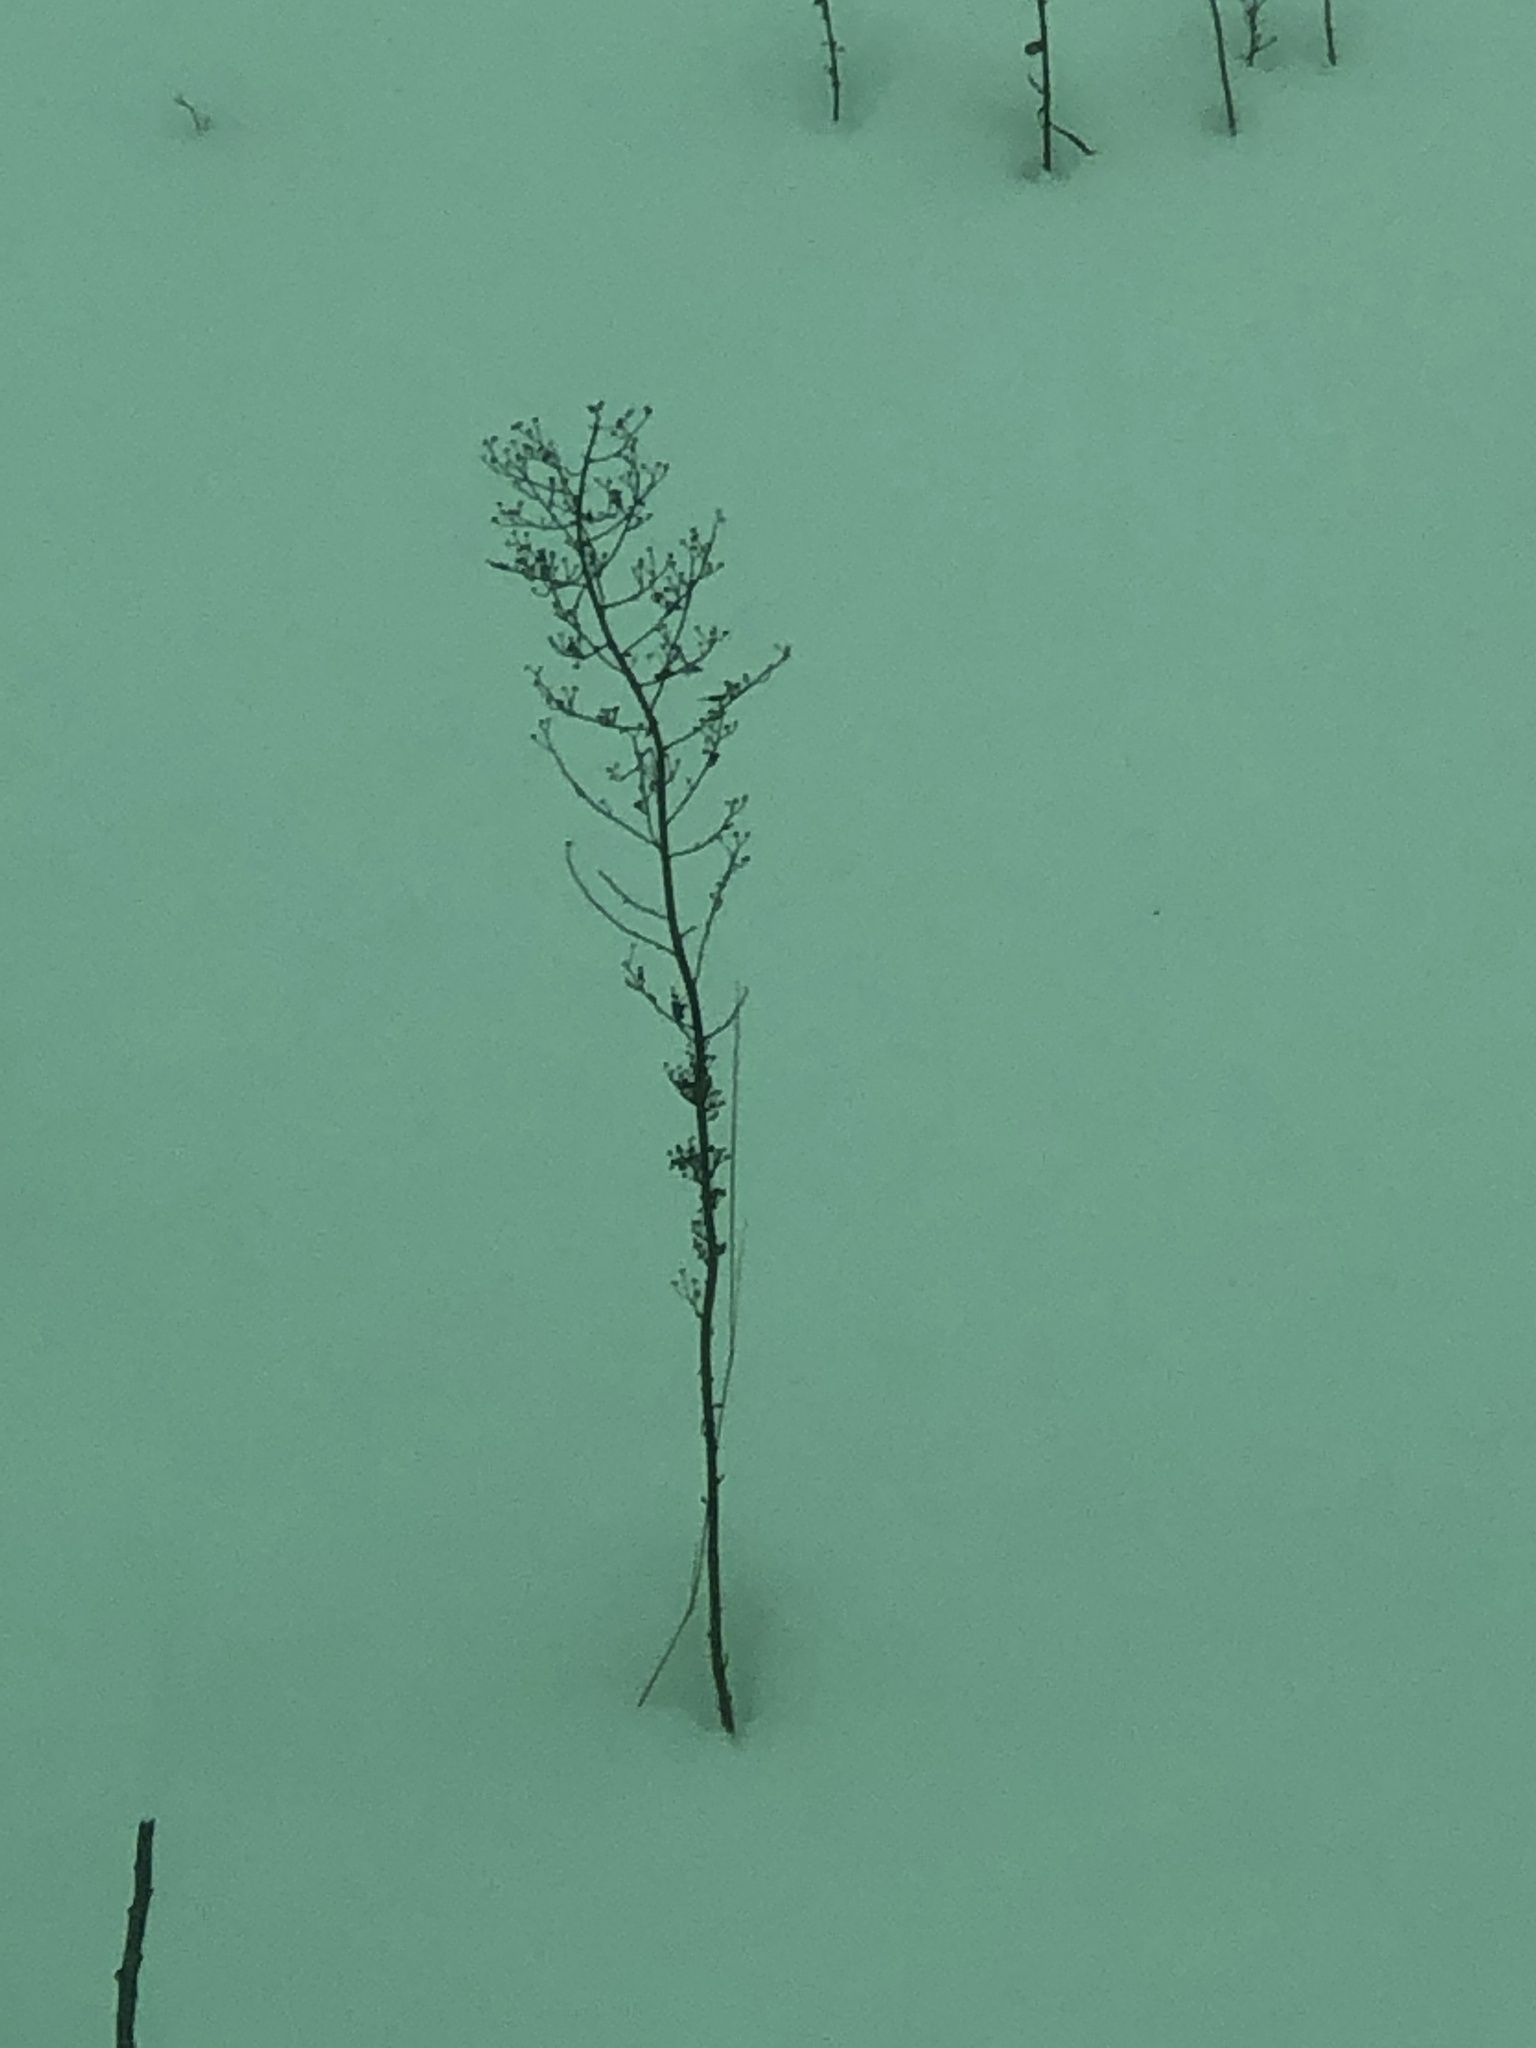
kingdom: Plantae
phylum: Tracheophyta
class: Magnoliopsida
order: Asterales
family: Asteraceae
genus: Erigeron
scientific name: Erigeron canadensis
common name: Canadian fleabane
